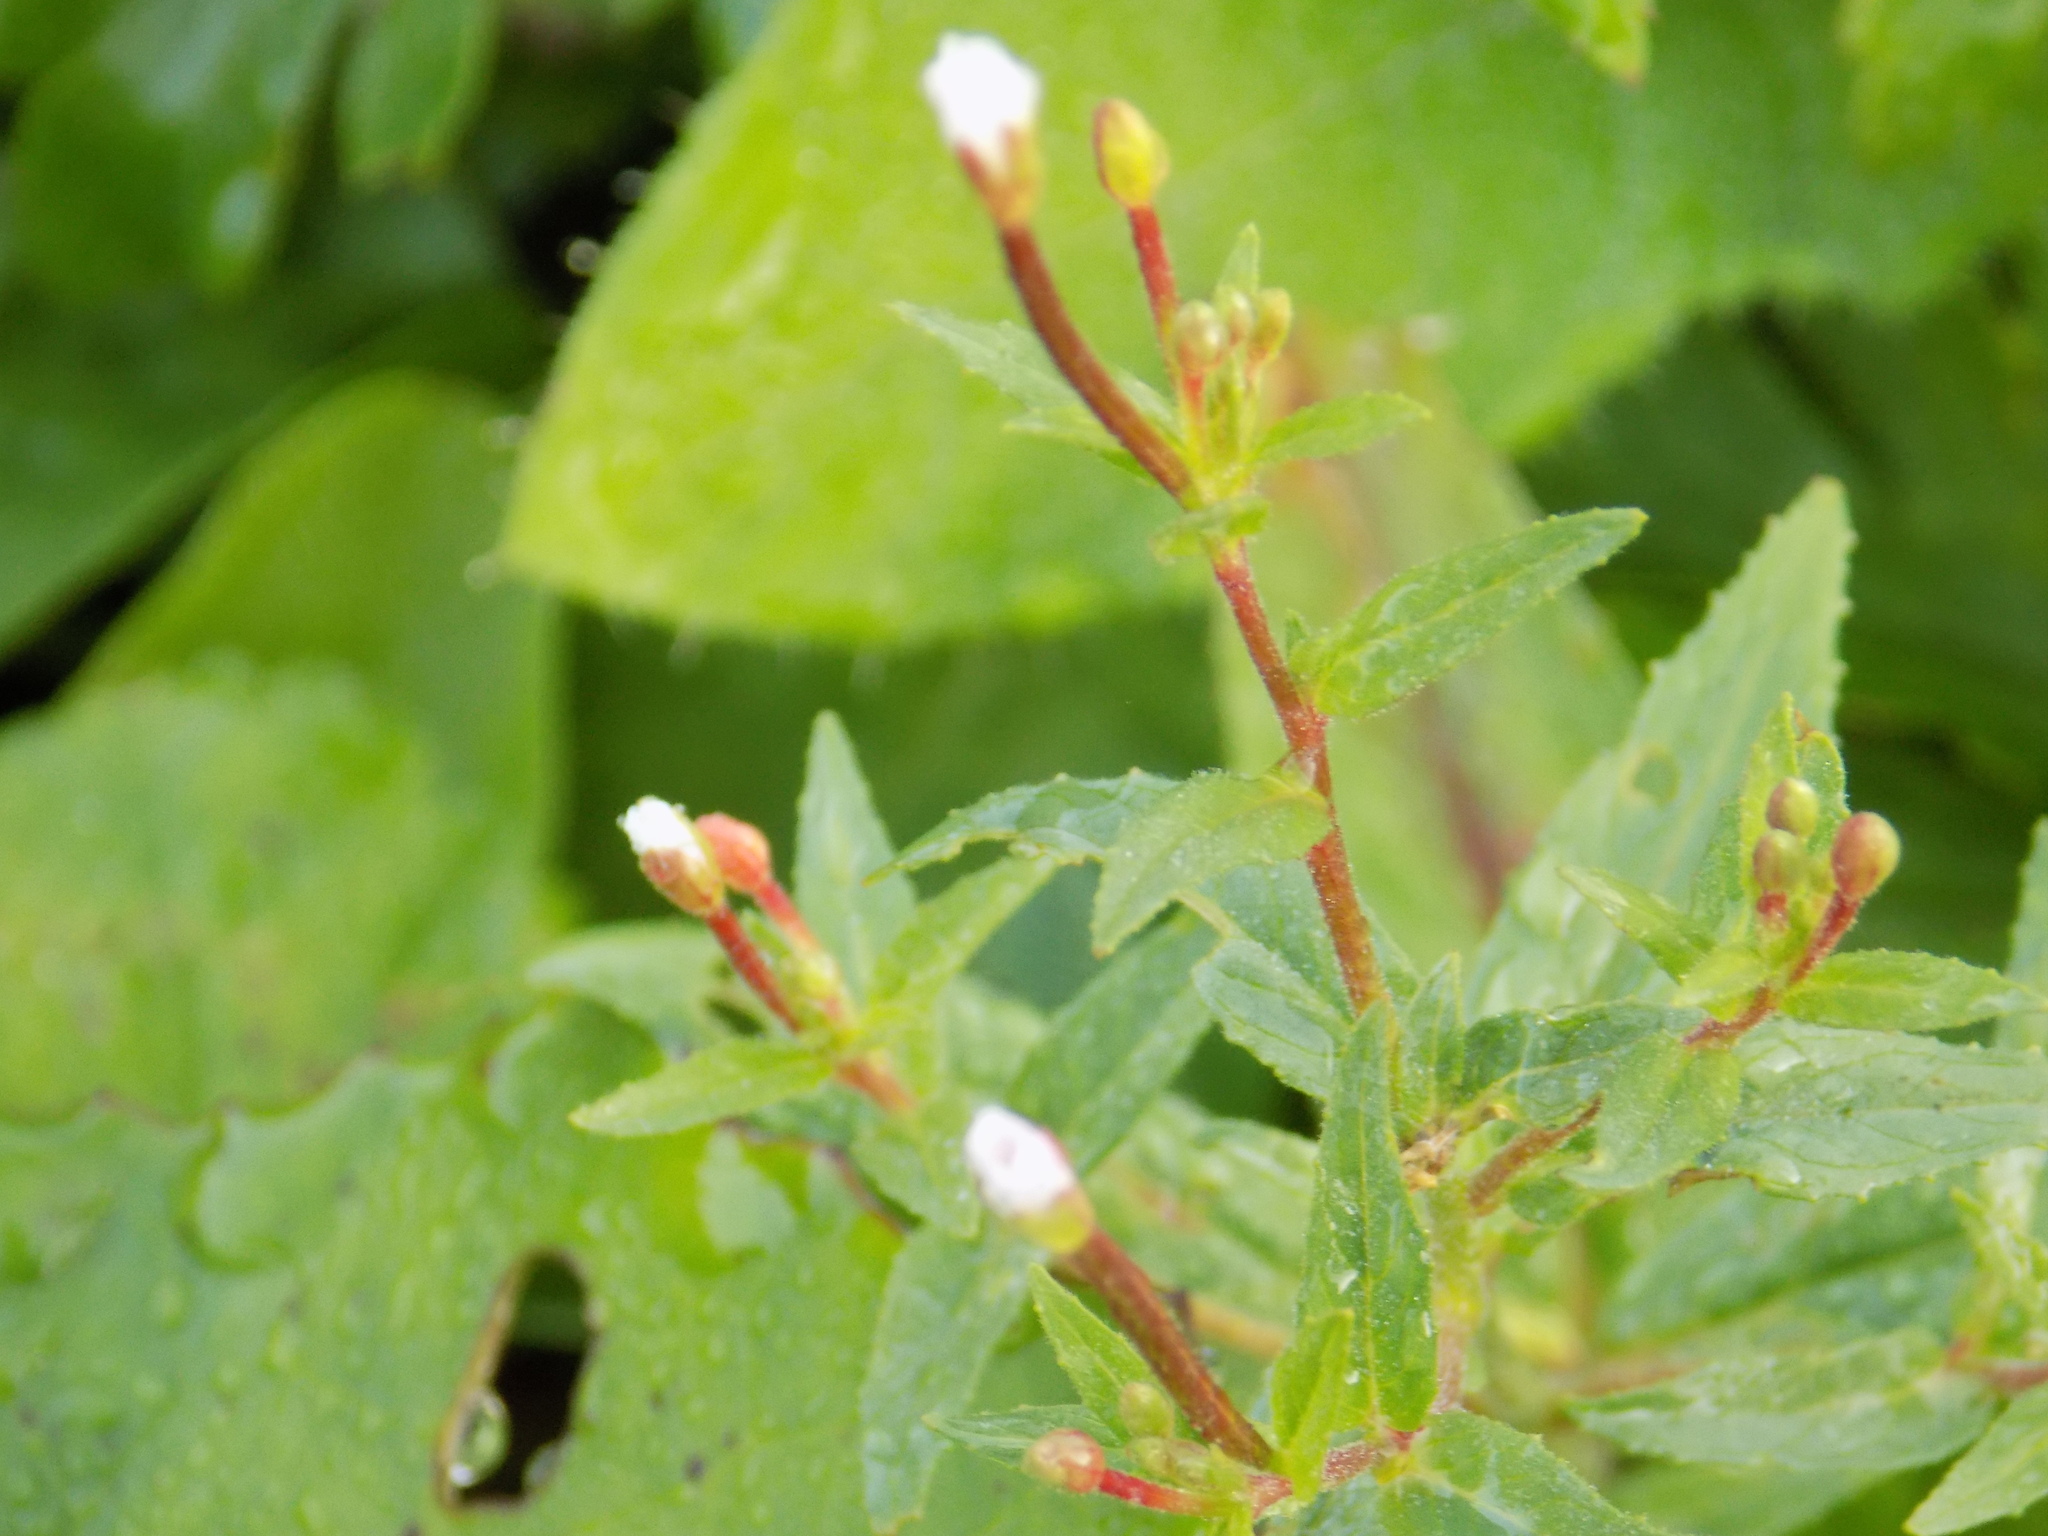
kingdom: Plantae
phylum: Tracheophyta
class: Magnoliopsida
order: Myrtales
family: Onagraceae
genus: Epilobium
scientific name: Epilobium pseudorubescens
